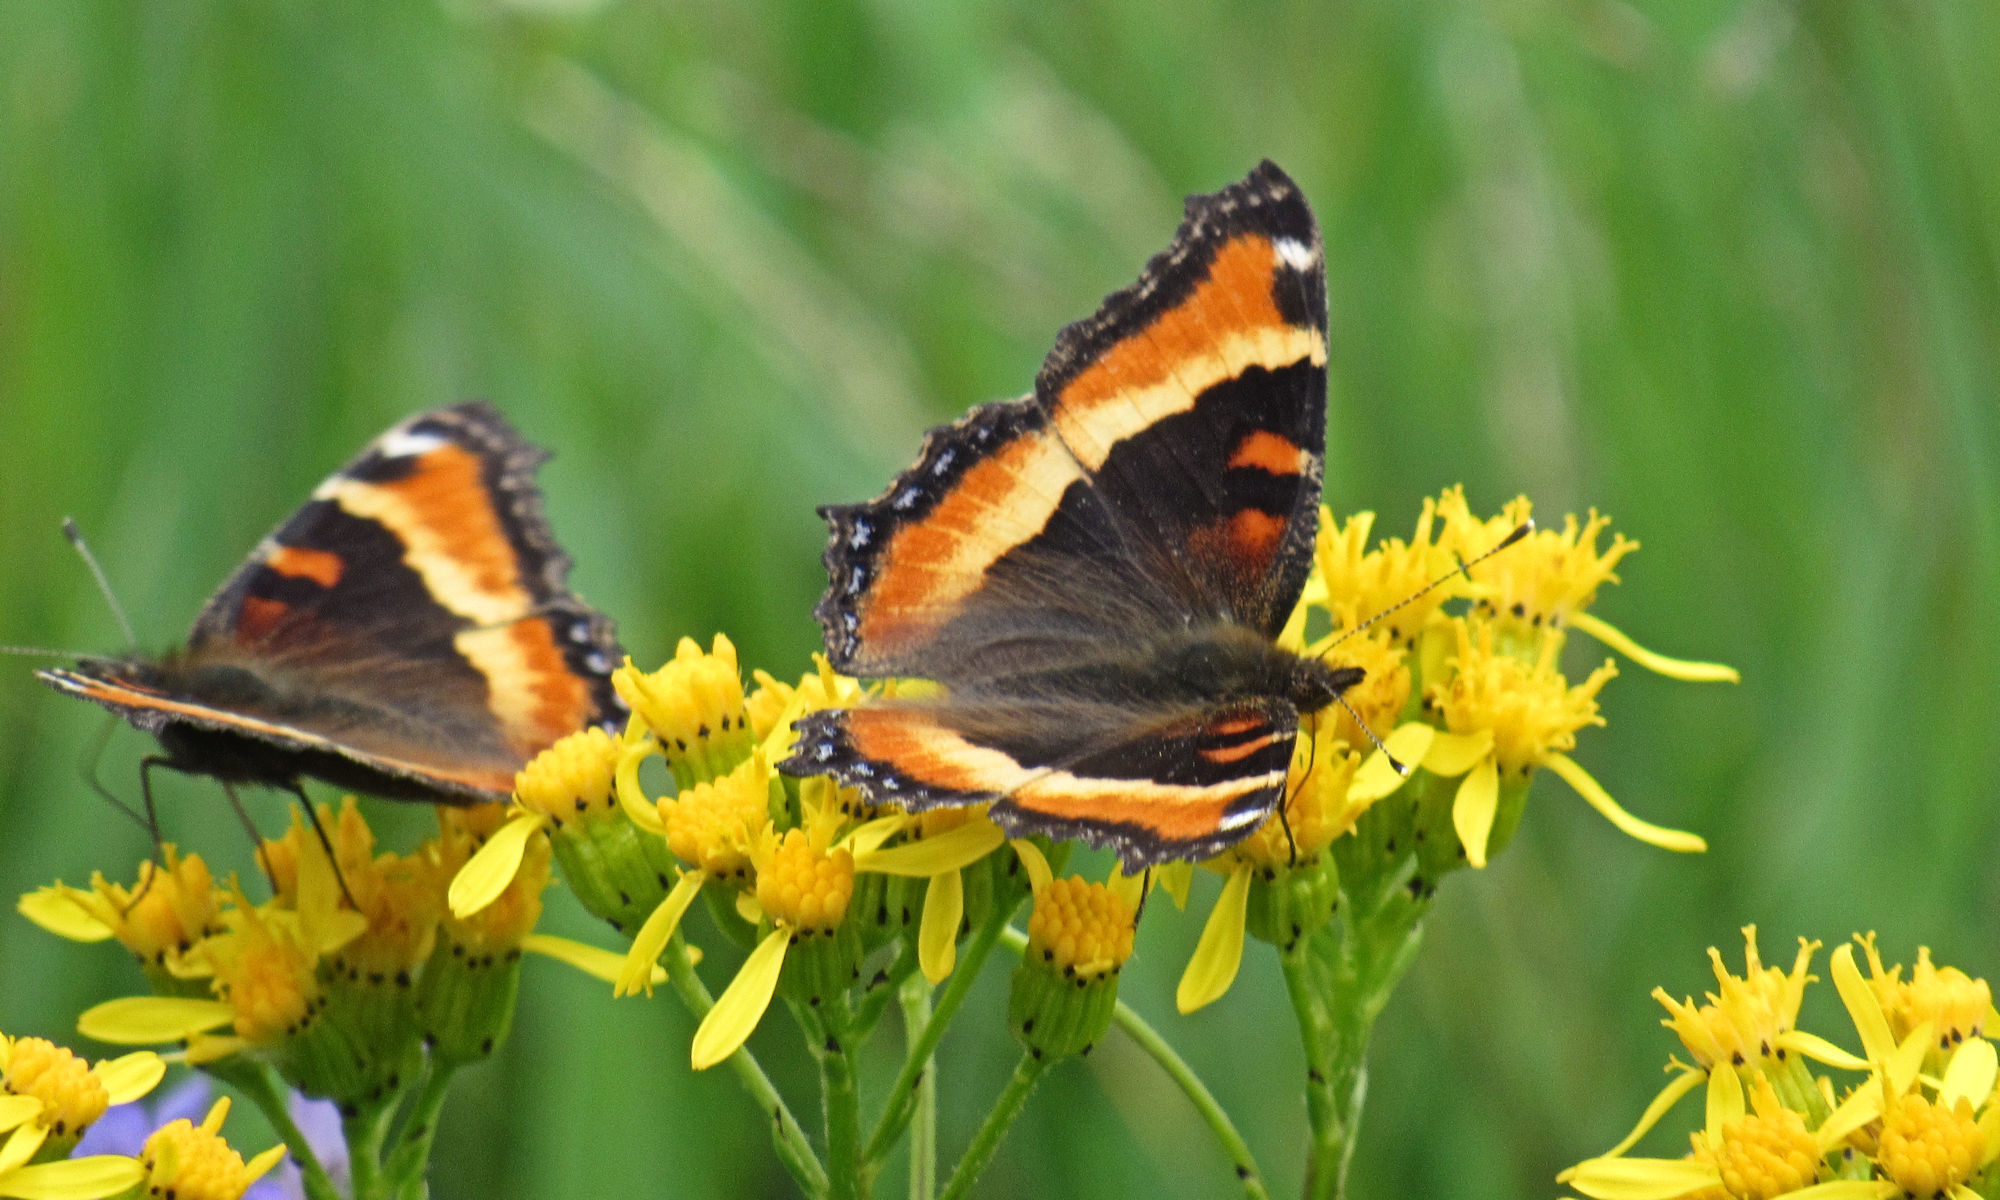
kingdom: Animalia
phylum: Arthropoda
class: Insecta
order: Lepidoptera
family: Nymphalidae
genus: Aglais
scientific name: Aglais milberti
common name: Milbert's tortoiseshell
